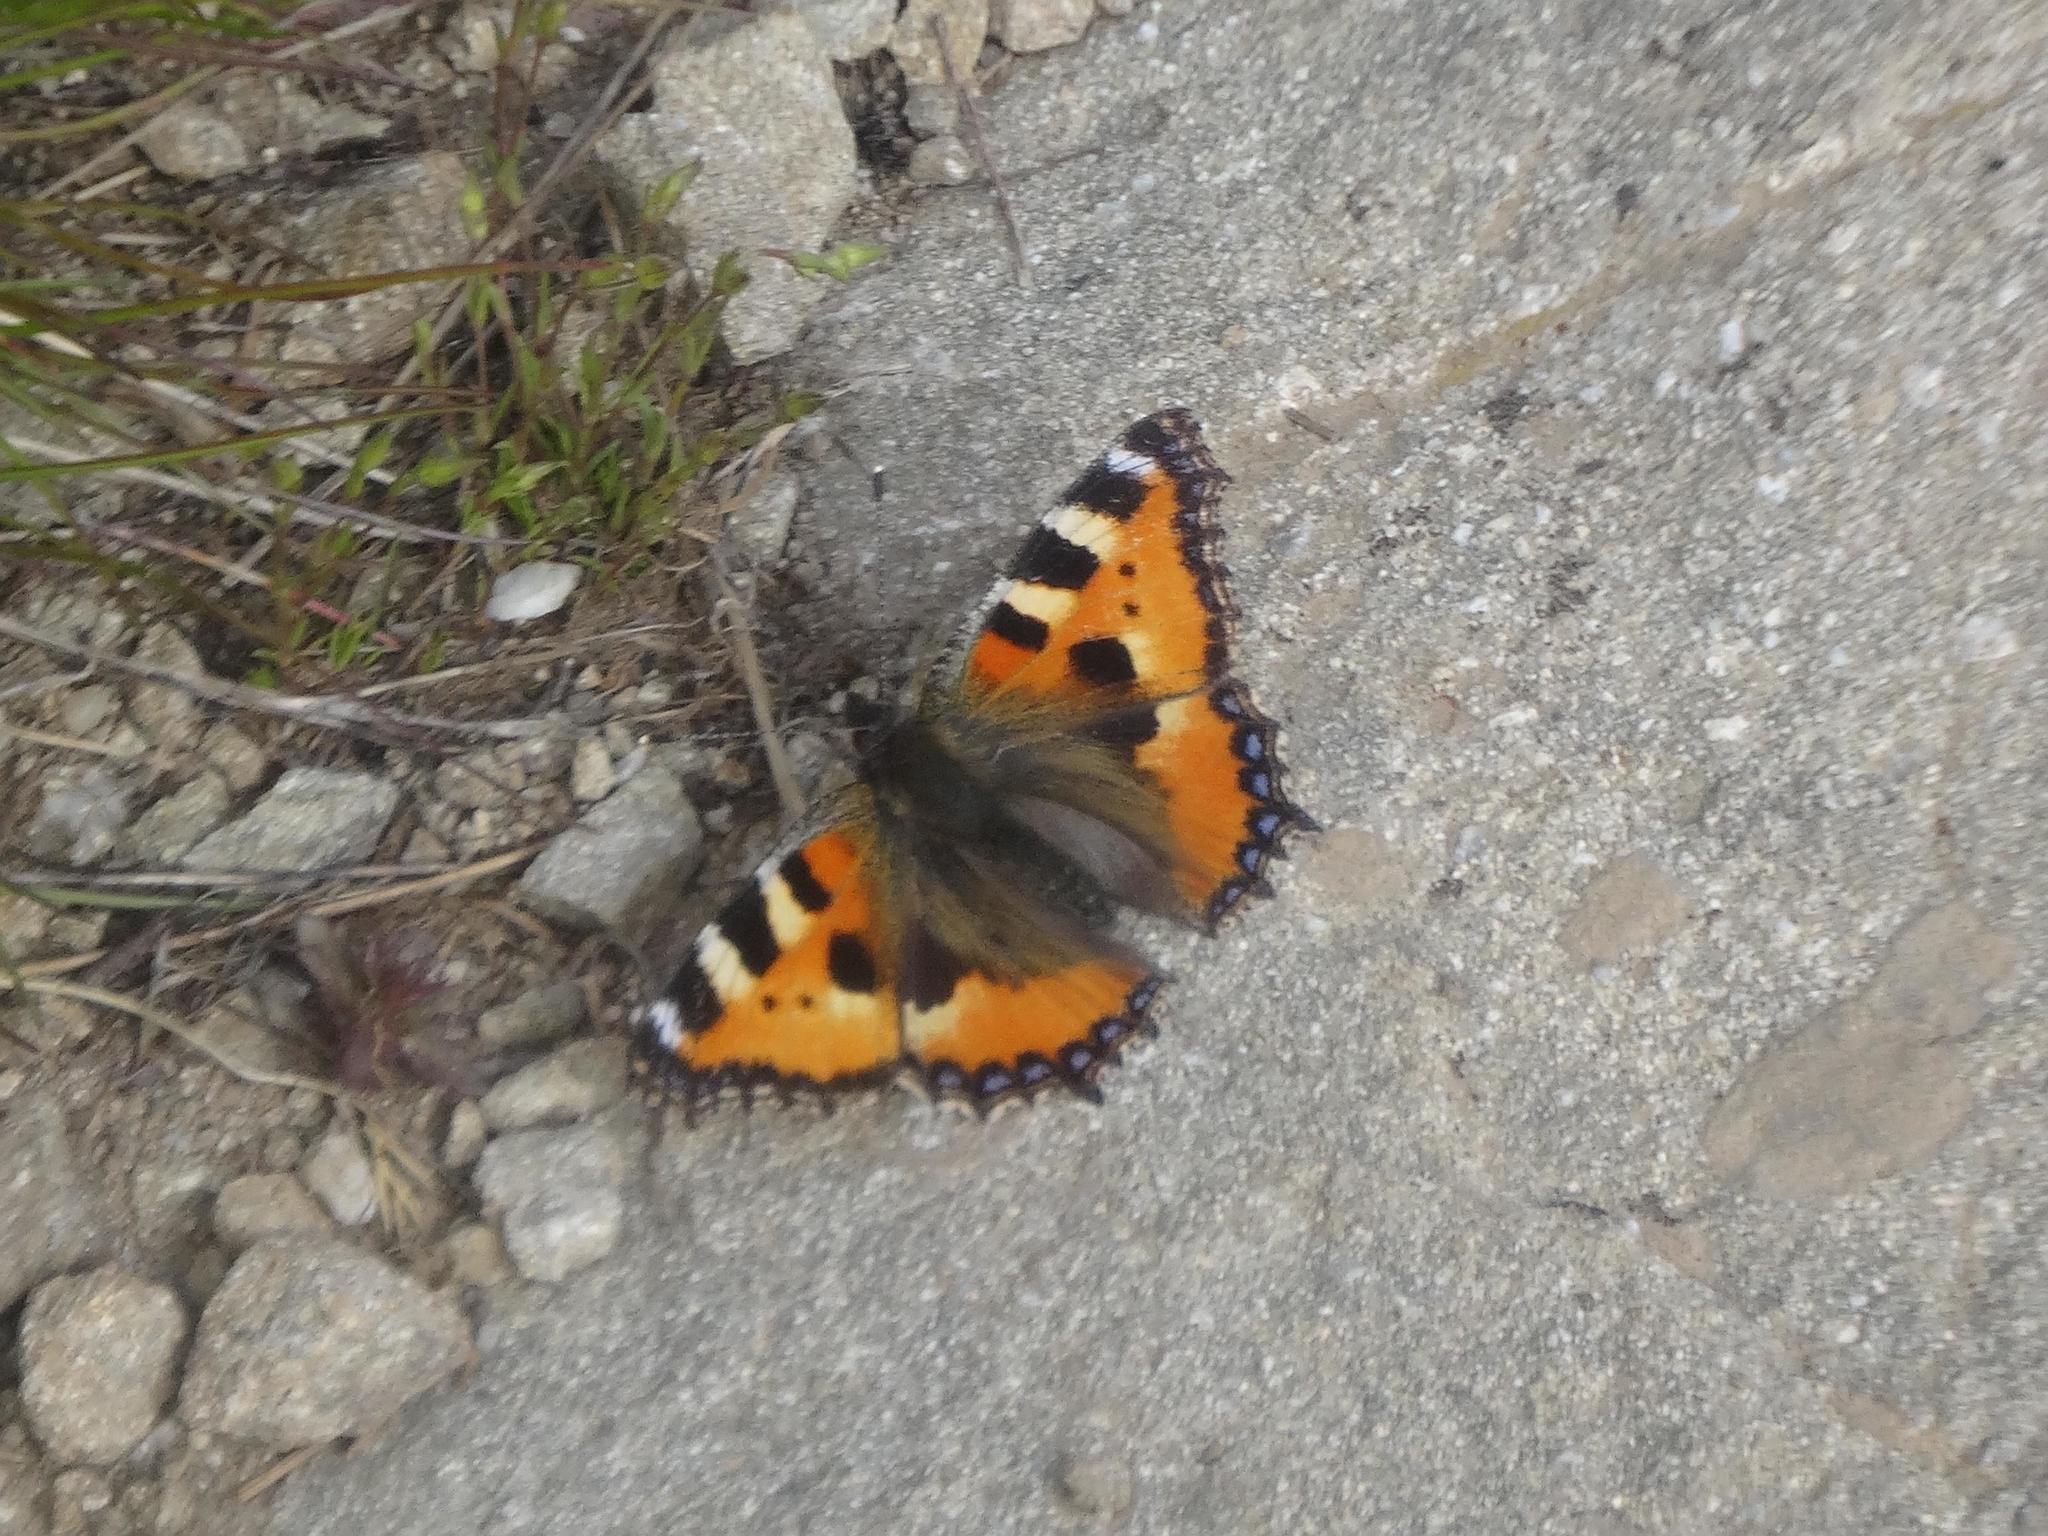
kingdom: Animalia
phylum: Arthropoda
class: Insecta
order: Lepidoptera
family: Nymphalidae
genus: Aglais
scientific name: Aglais urticae
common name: Small tortoiseshell
